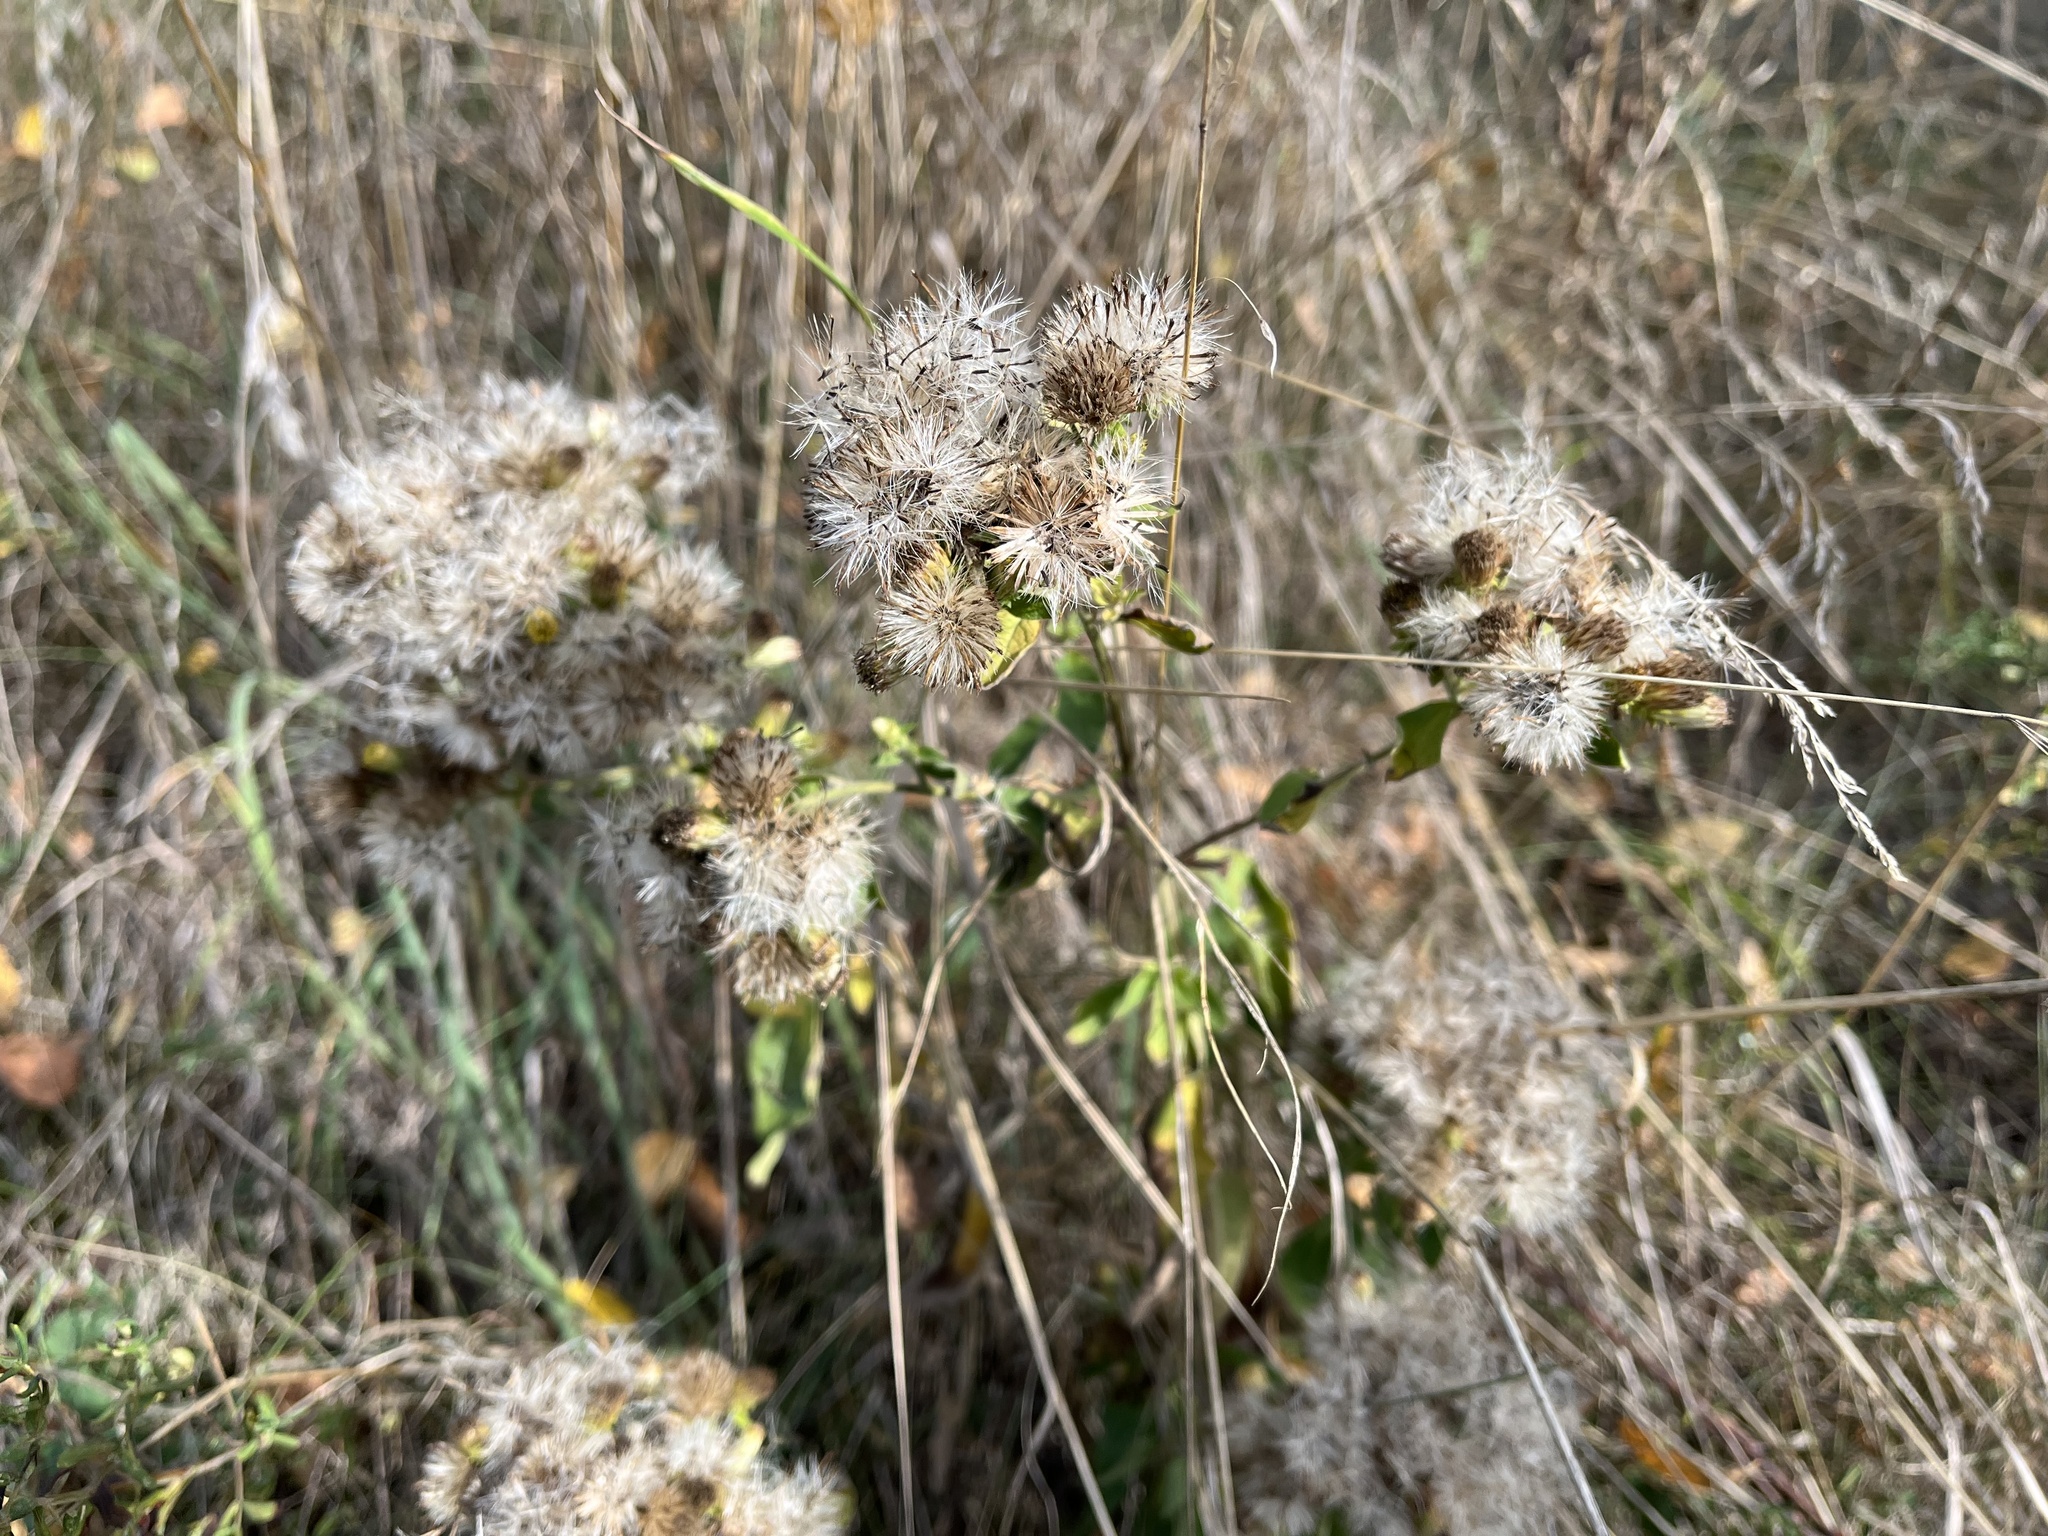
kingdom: Plantae
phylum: Tracheophyta
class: Magnoliopsida
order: Asterales
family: Asteraceae
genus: Pentanema
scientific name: Pentanema squarrosum
